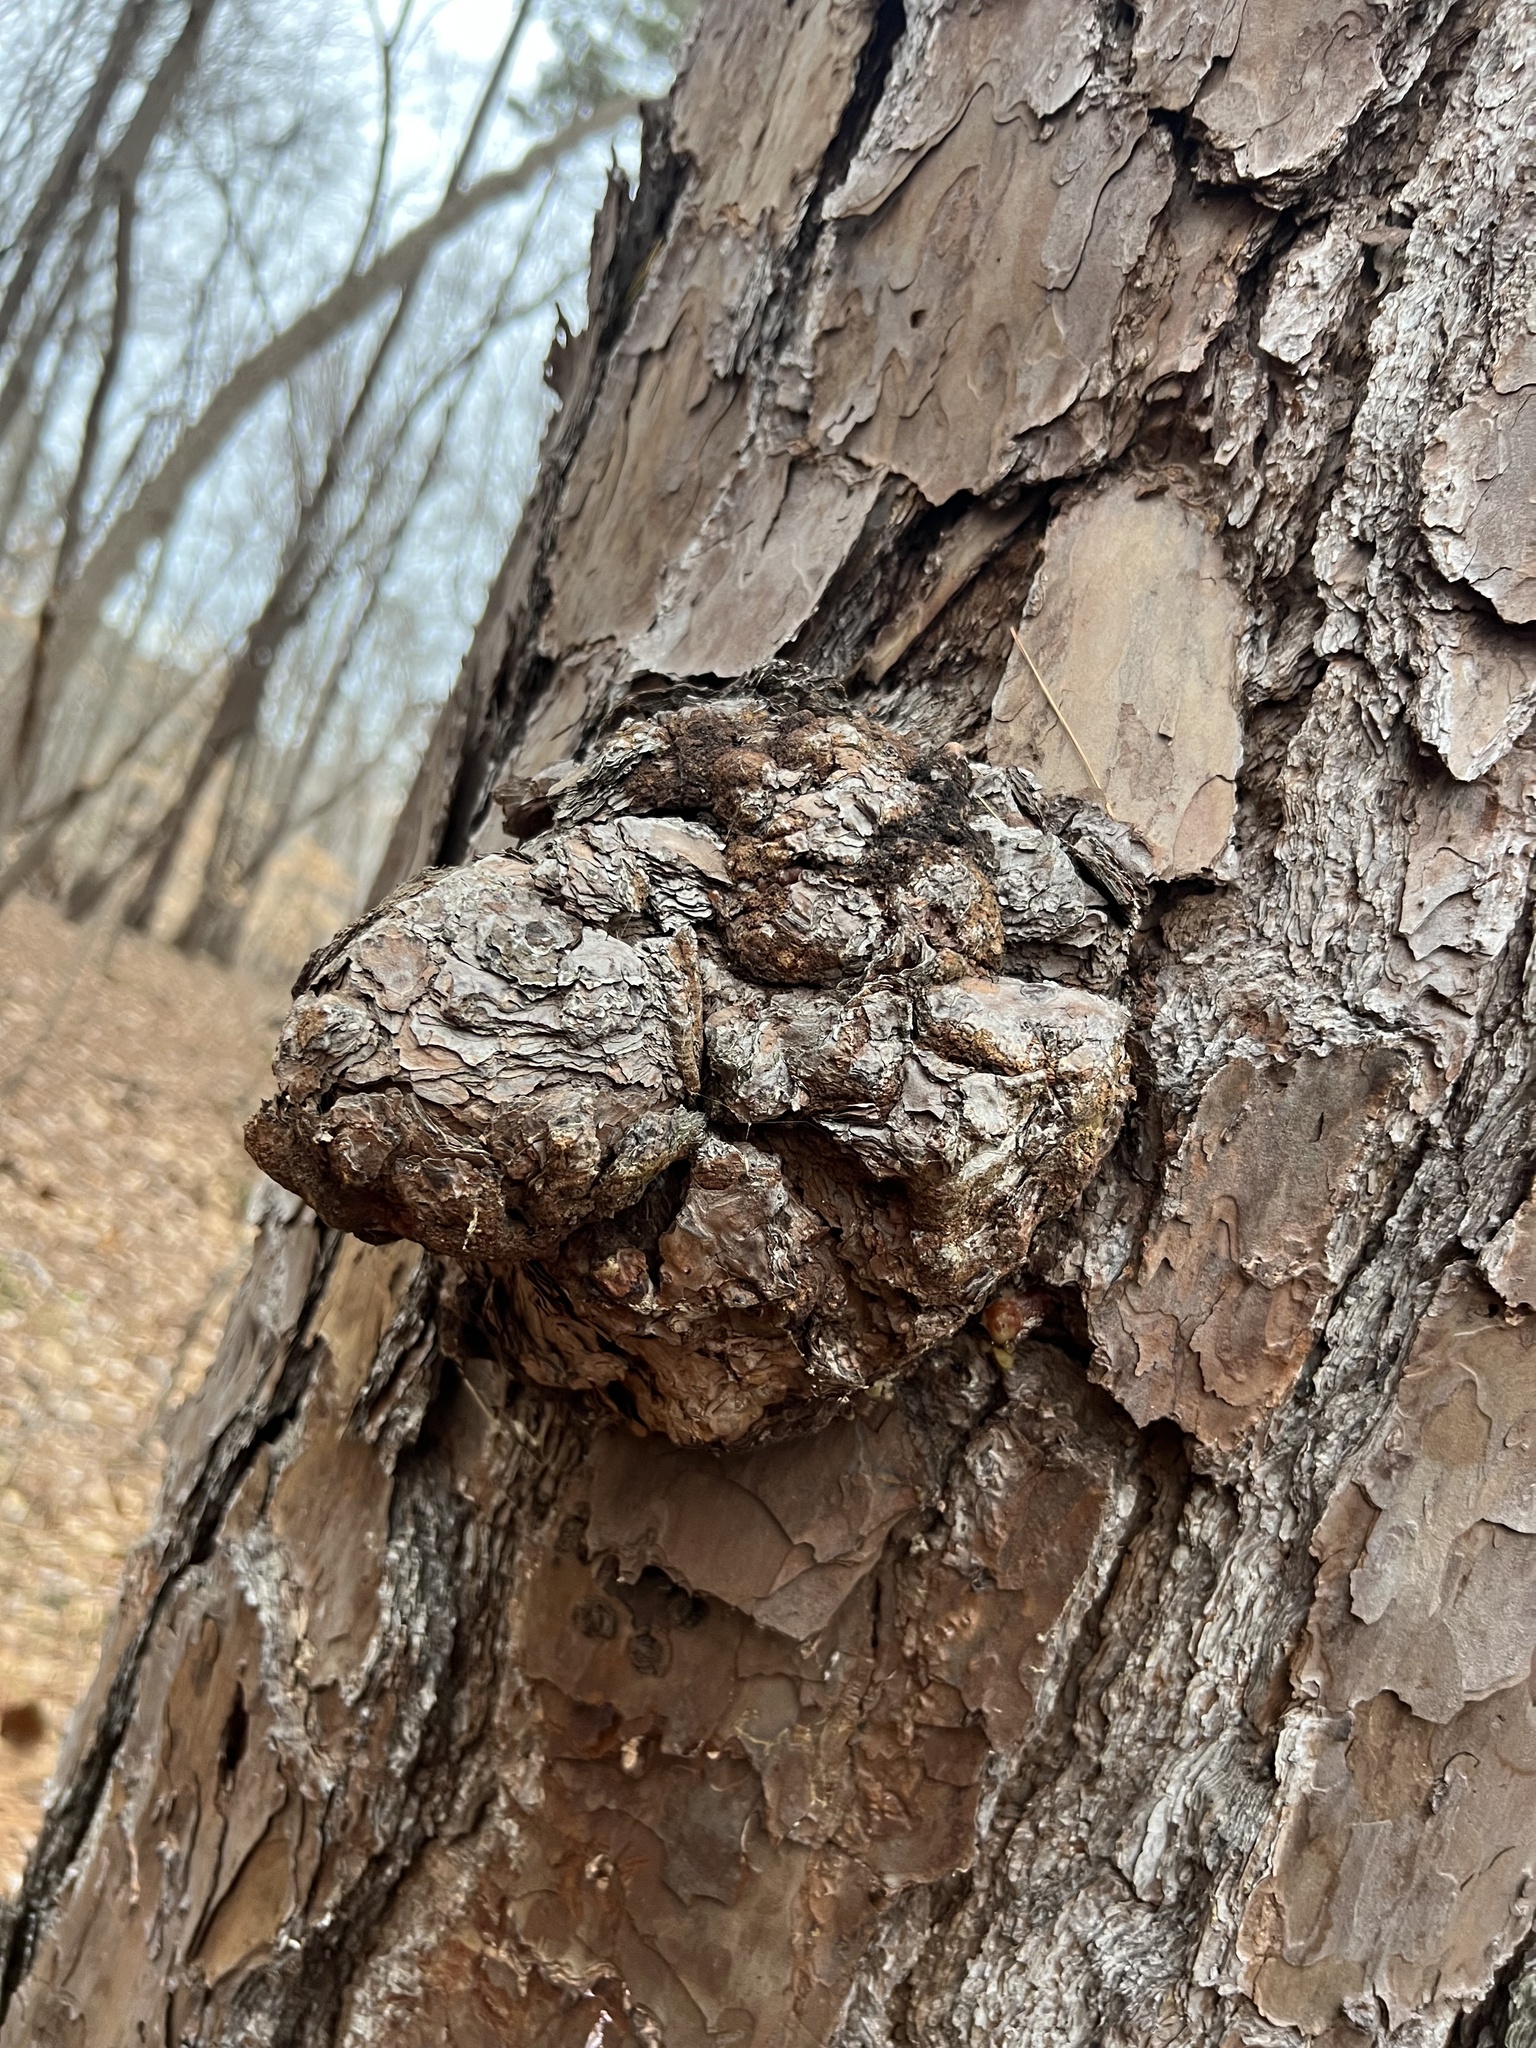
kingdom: Bacteria
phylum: Proteobacteria
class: Alphaproteobacteria
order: Rhizobiales
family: Rhizobiaceae
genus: Rhizobium
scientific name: Rhizobium Agrobacterium radiobacter
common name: Bacterial crown gall
